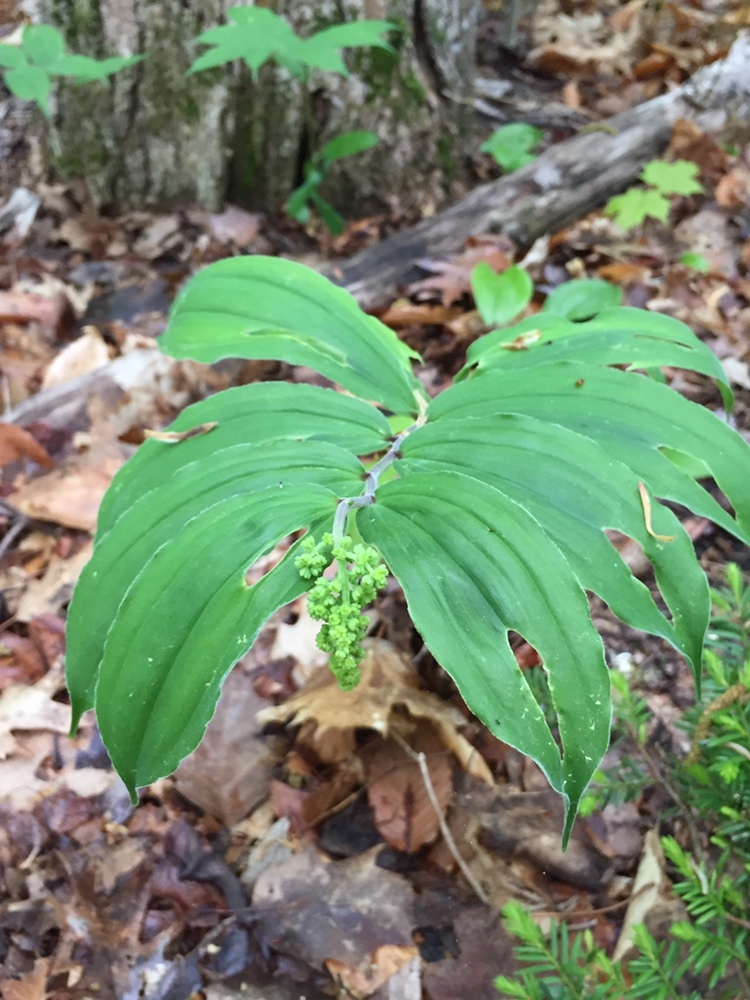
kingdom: Plantae
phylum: Tracheophyta
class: Liliopsida
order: Asparagales
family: Asparagaceae
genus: Maianthemum
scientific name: Maianthemum racemosum
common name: False spikenard
